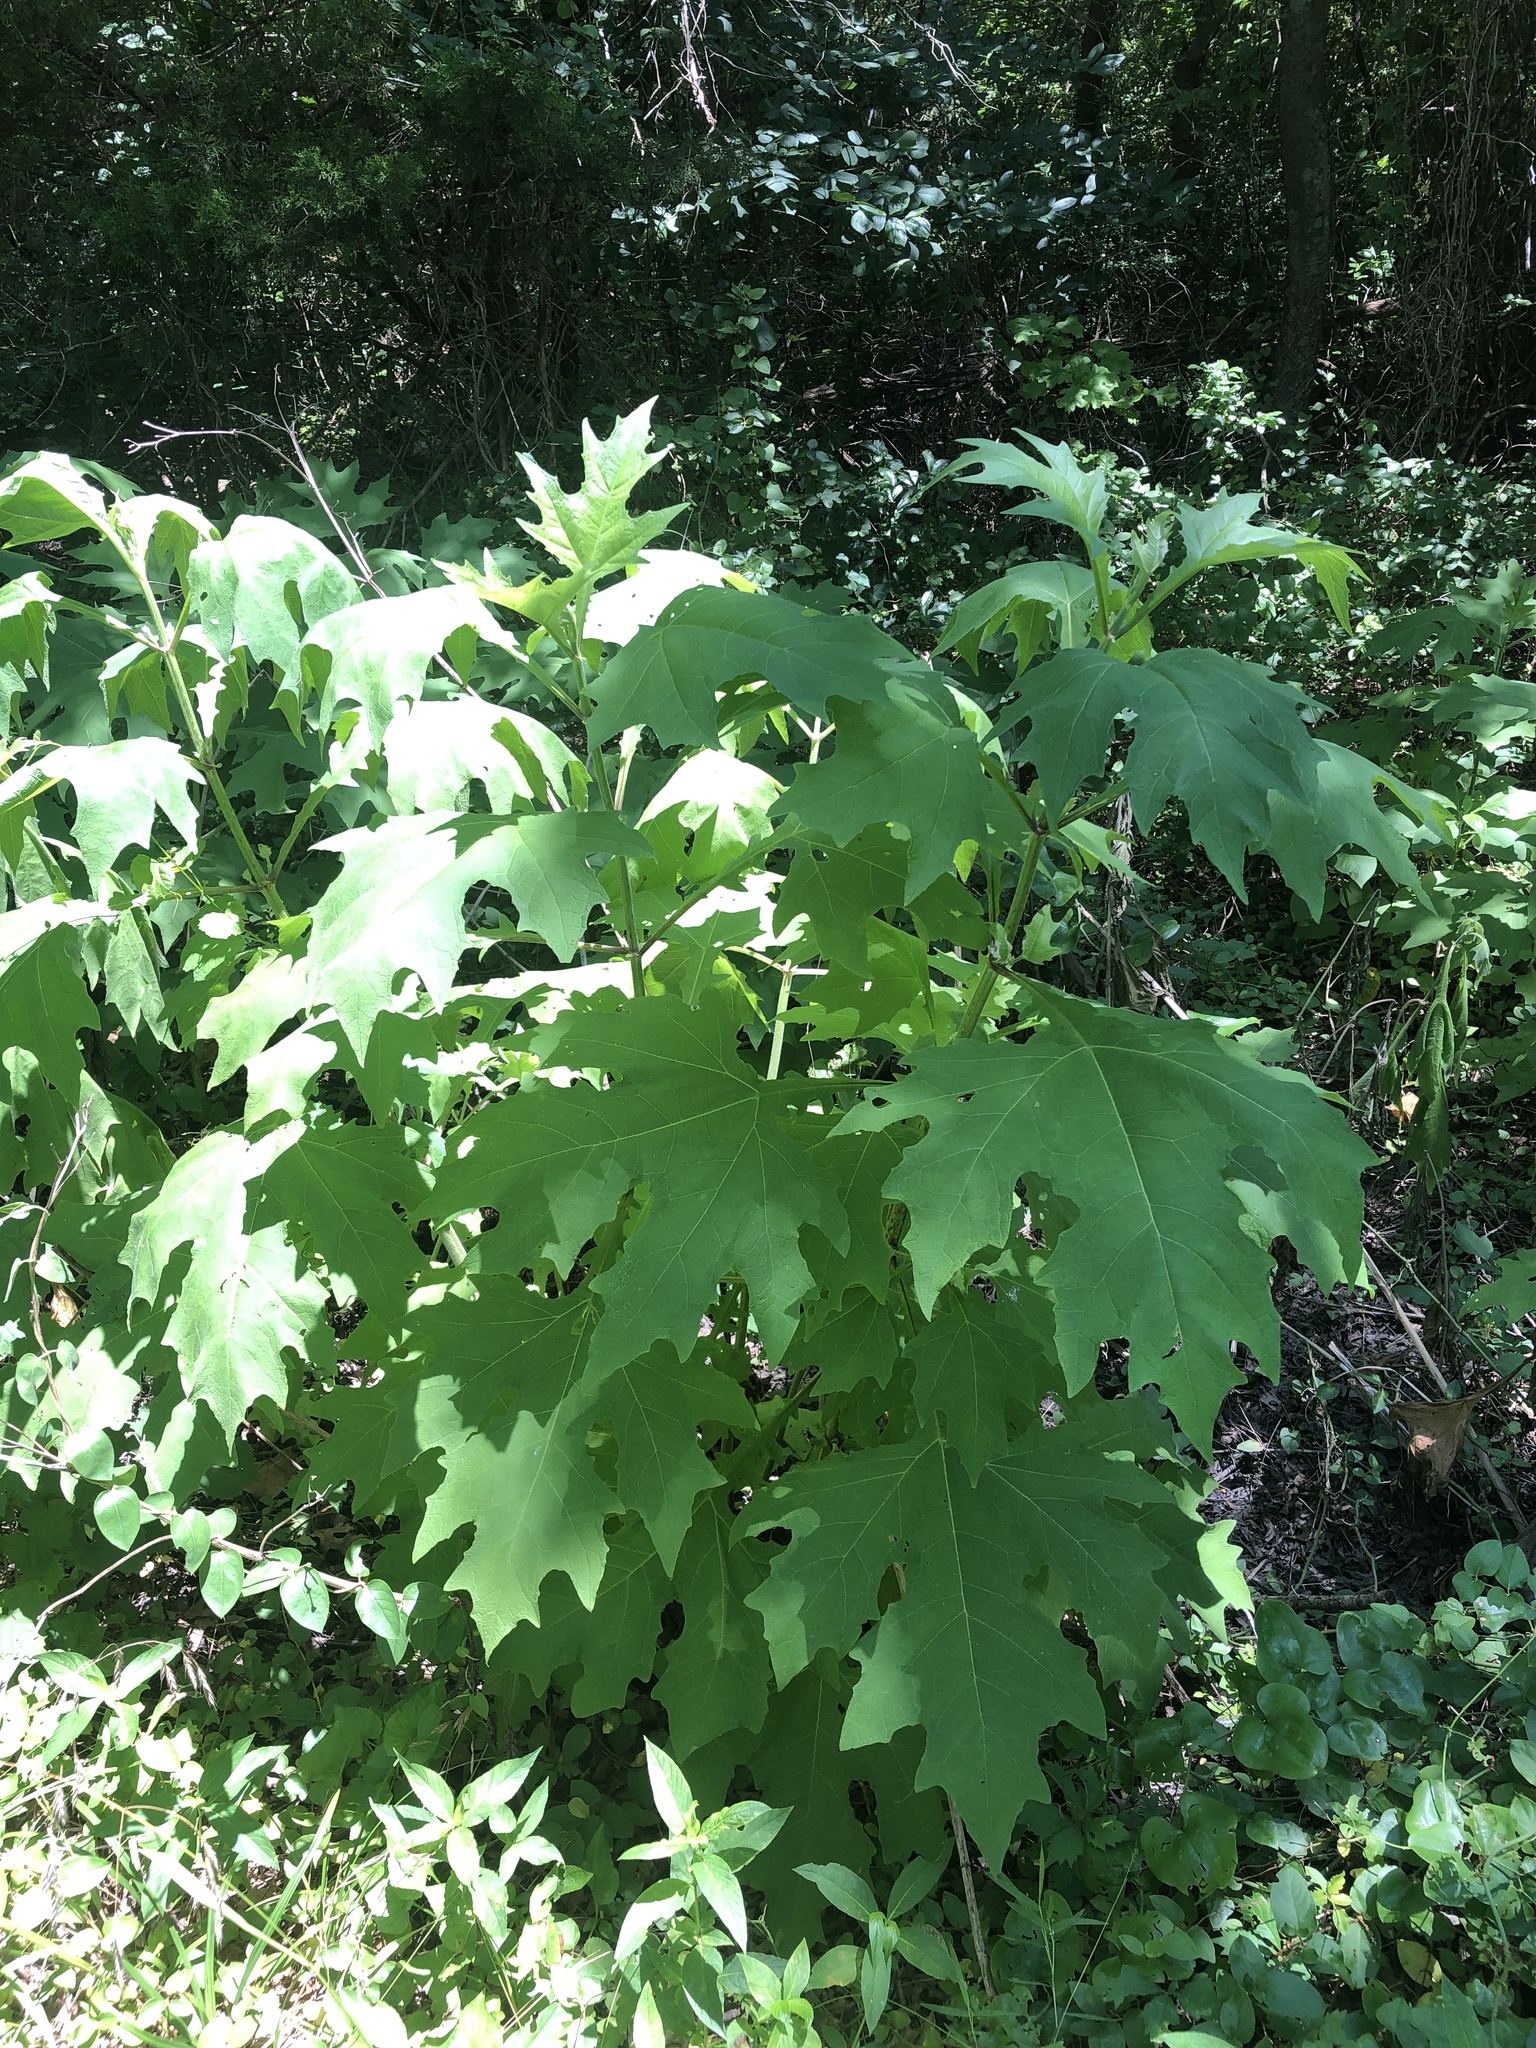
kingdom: Plantae
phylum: Tracheophyta
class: Magnoliopsida
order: Asterales
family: Asteraceae
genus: Smallanthus
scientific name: Smallanthus uvedalia
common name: Bear's-foot
